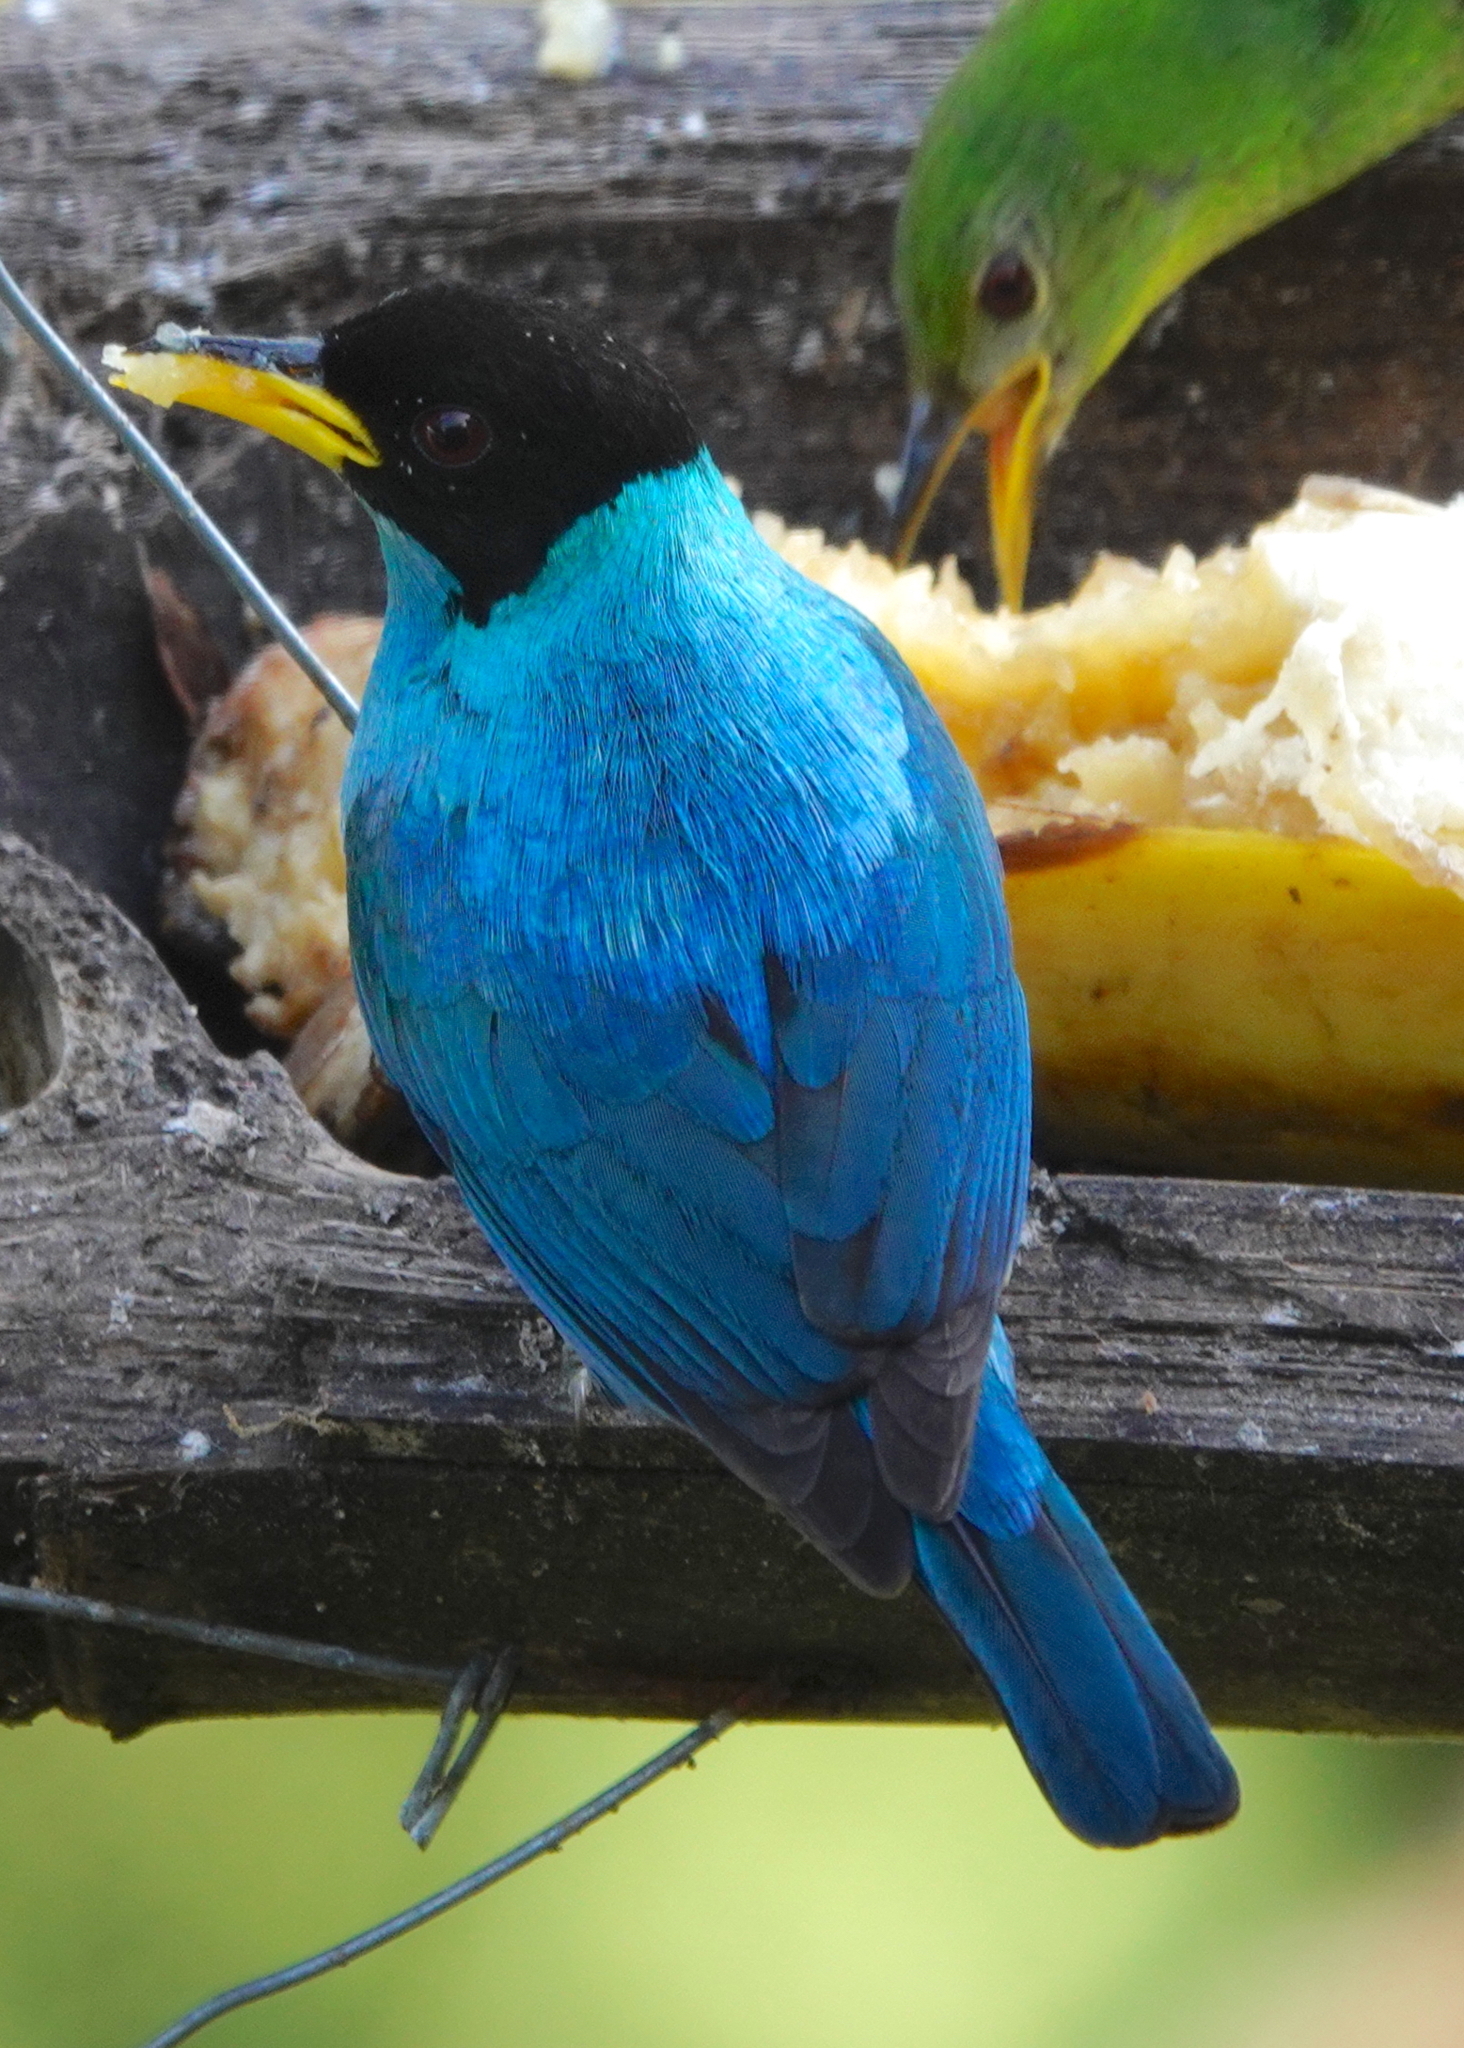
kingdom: Animalia
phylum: Chordata
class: Aves
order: Passeriformes
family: Thraupidae
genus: Chlorophanes
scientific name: Chlorophanes spiza
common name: Green honeycreeper
